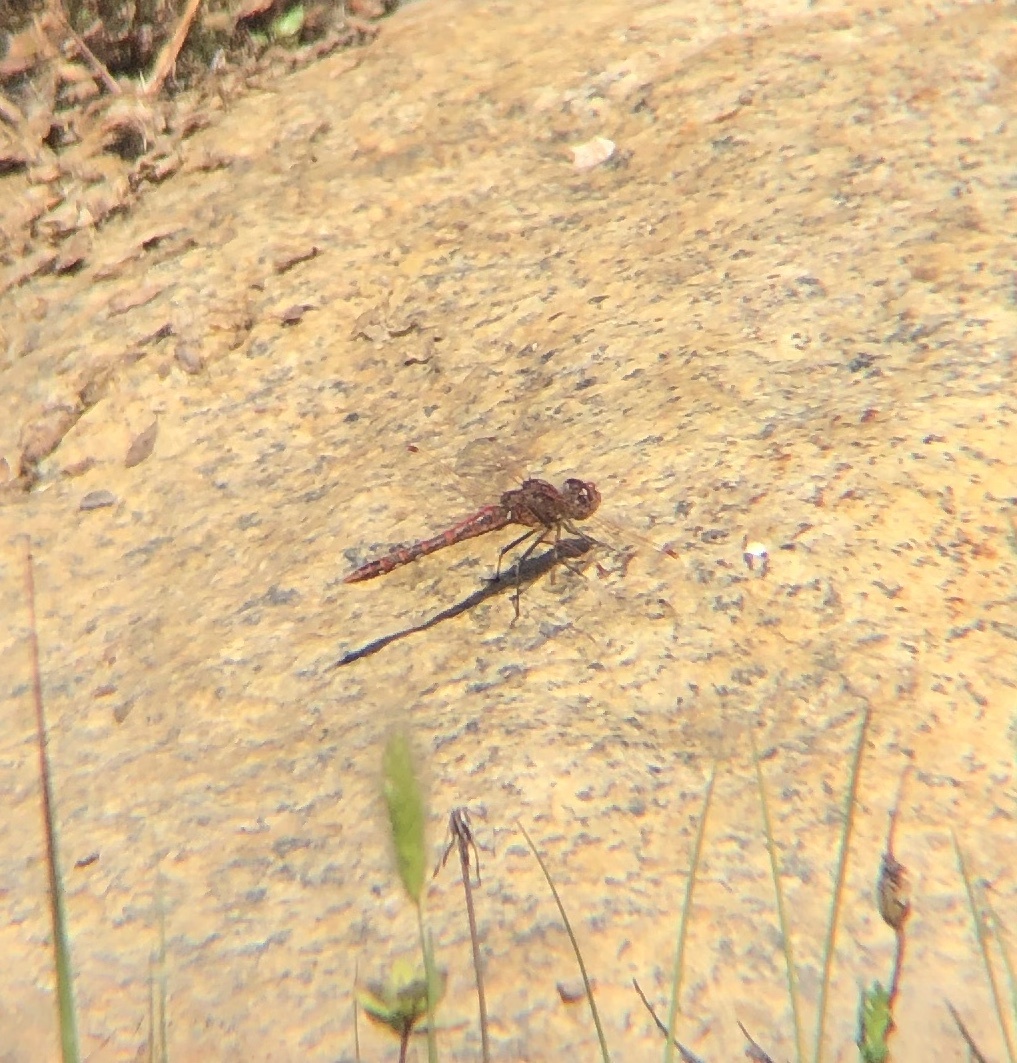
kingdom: Animalia
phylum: Arthropoda
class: Insecta
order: Odonata
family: Libellulidae
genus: Sympetrum
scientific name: Sympetrum corruptum
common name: Variegated meadowhawk
